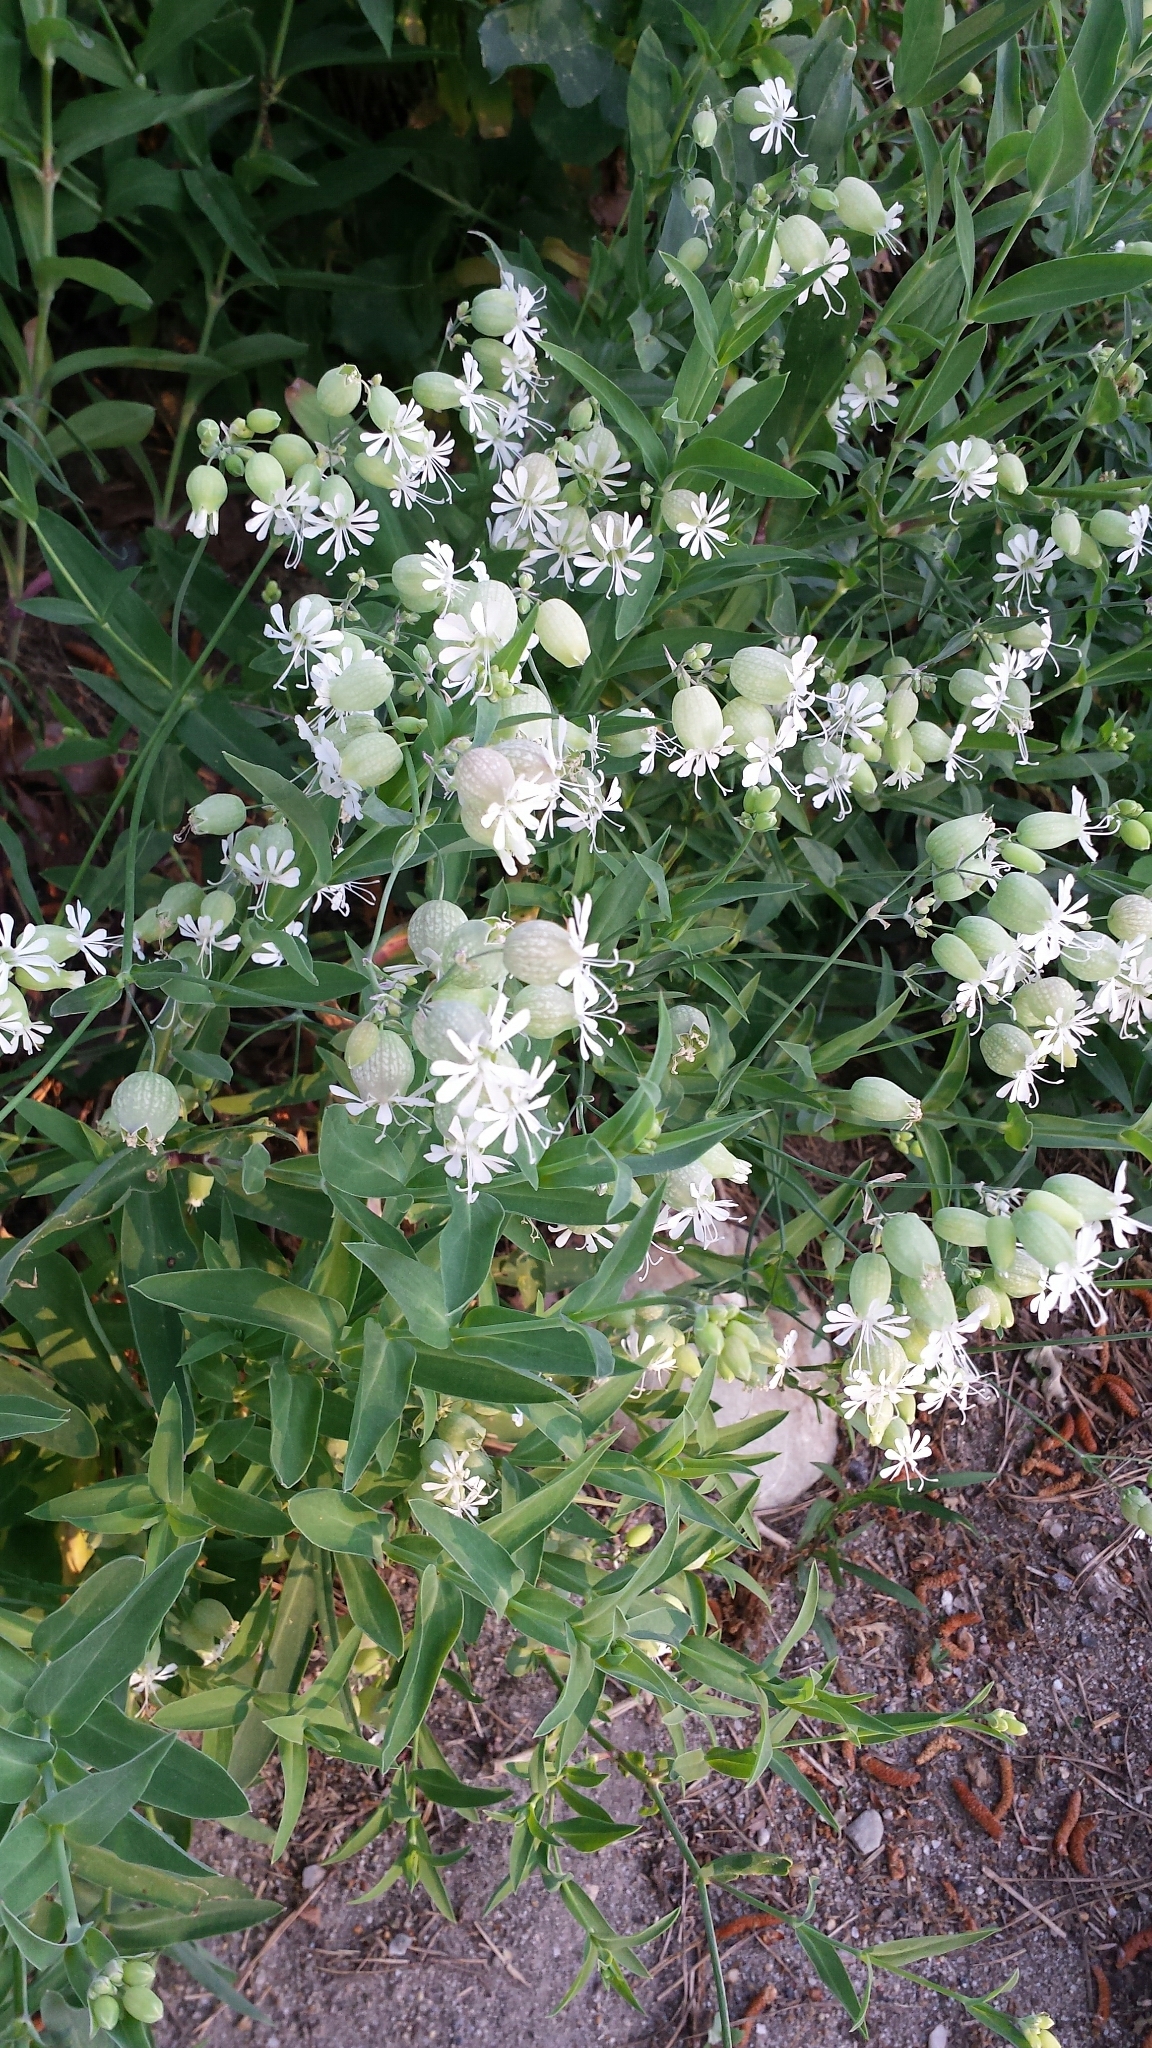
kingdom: Plantae
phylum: Tracheophyta
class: Magnoliopsida
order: Caryophyllales
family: Caryophyllaceae
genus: Silene
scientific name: Silene vulgaris
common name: Bladder campion
